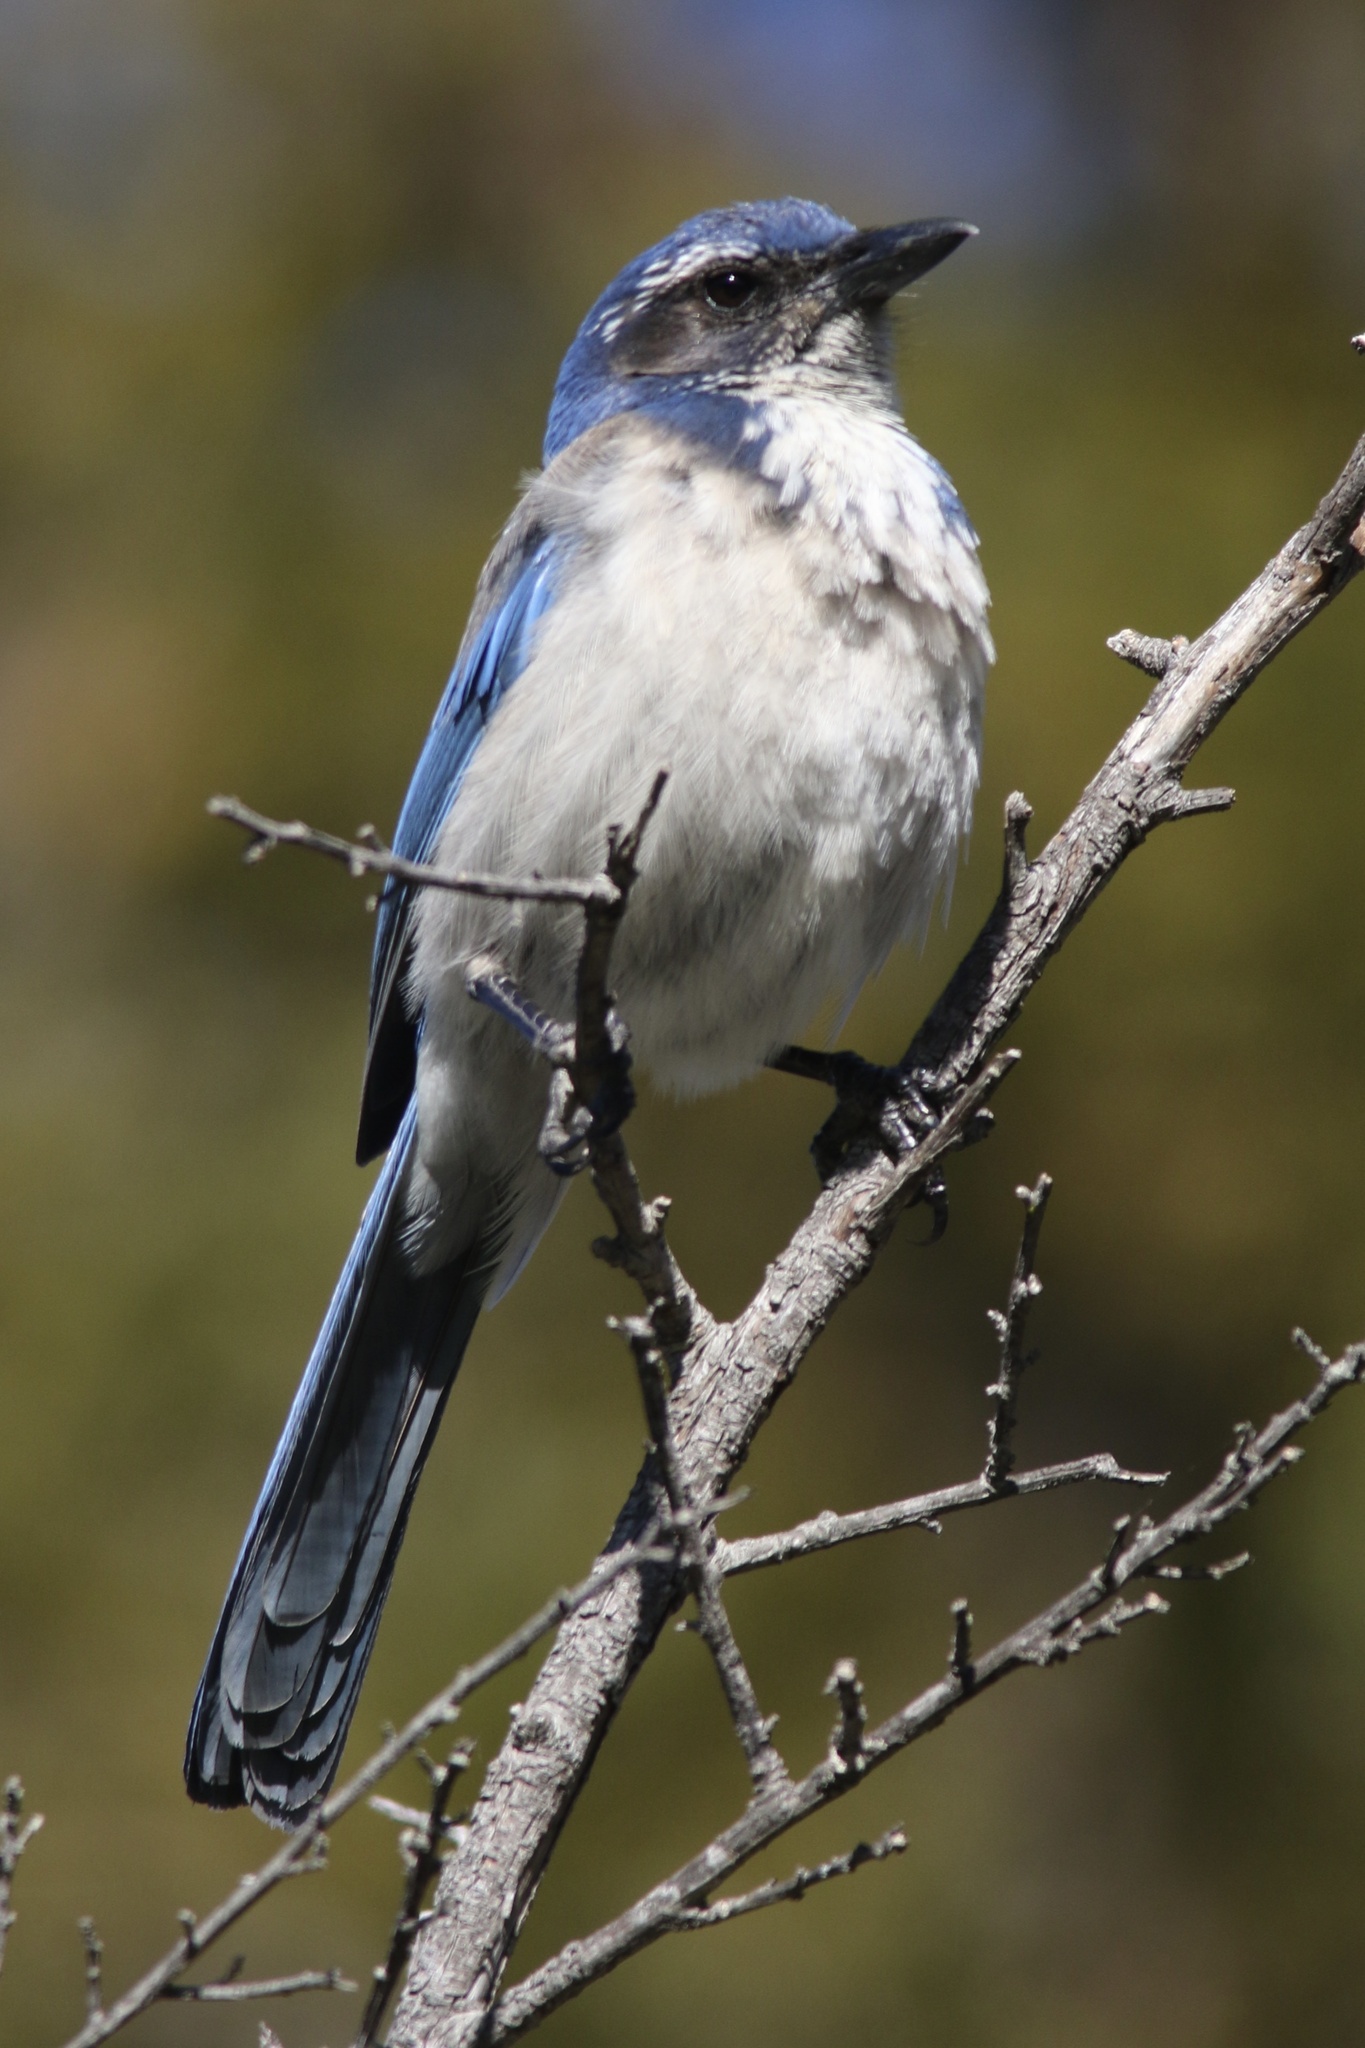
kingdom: Animalia
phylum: Chordata
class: Aves
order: Passeriformes
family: Corvidae
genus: Aphelocoma
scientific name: Aphelocoma californica
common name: California scrub-jay
